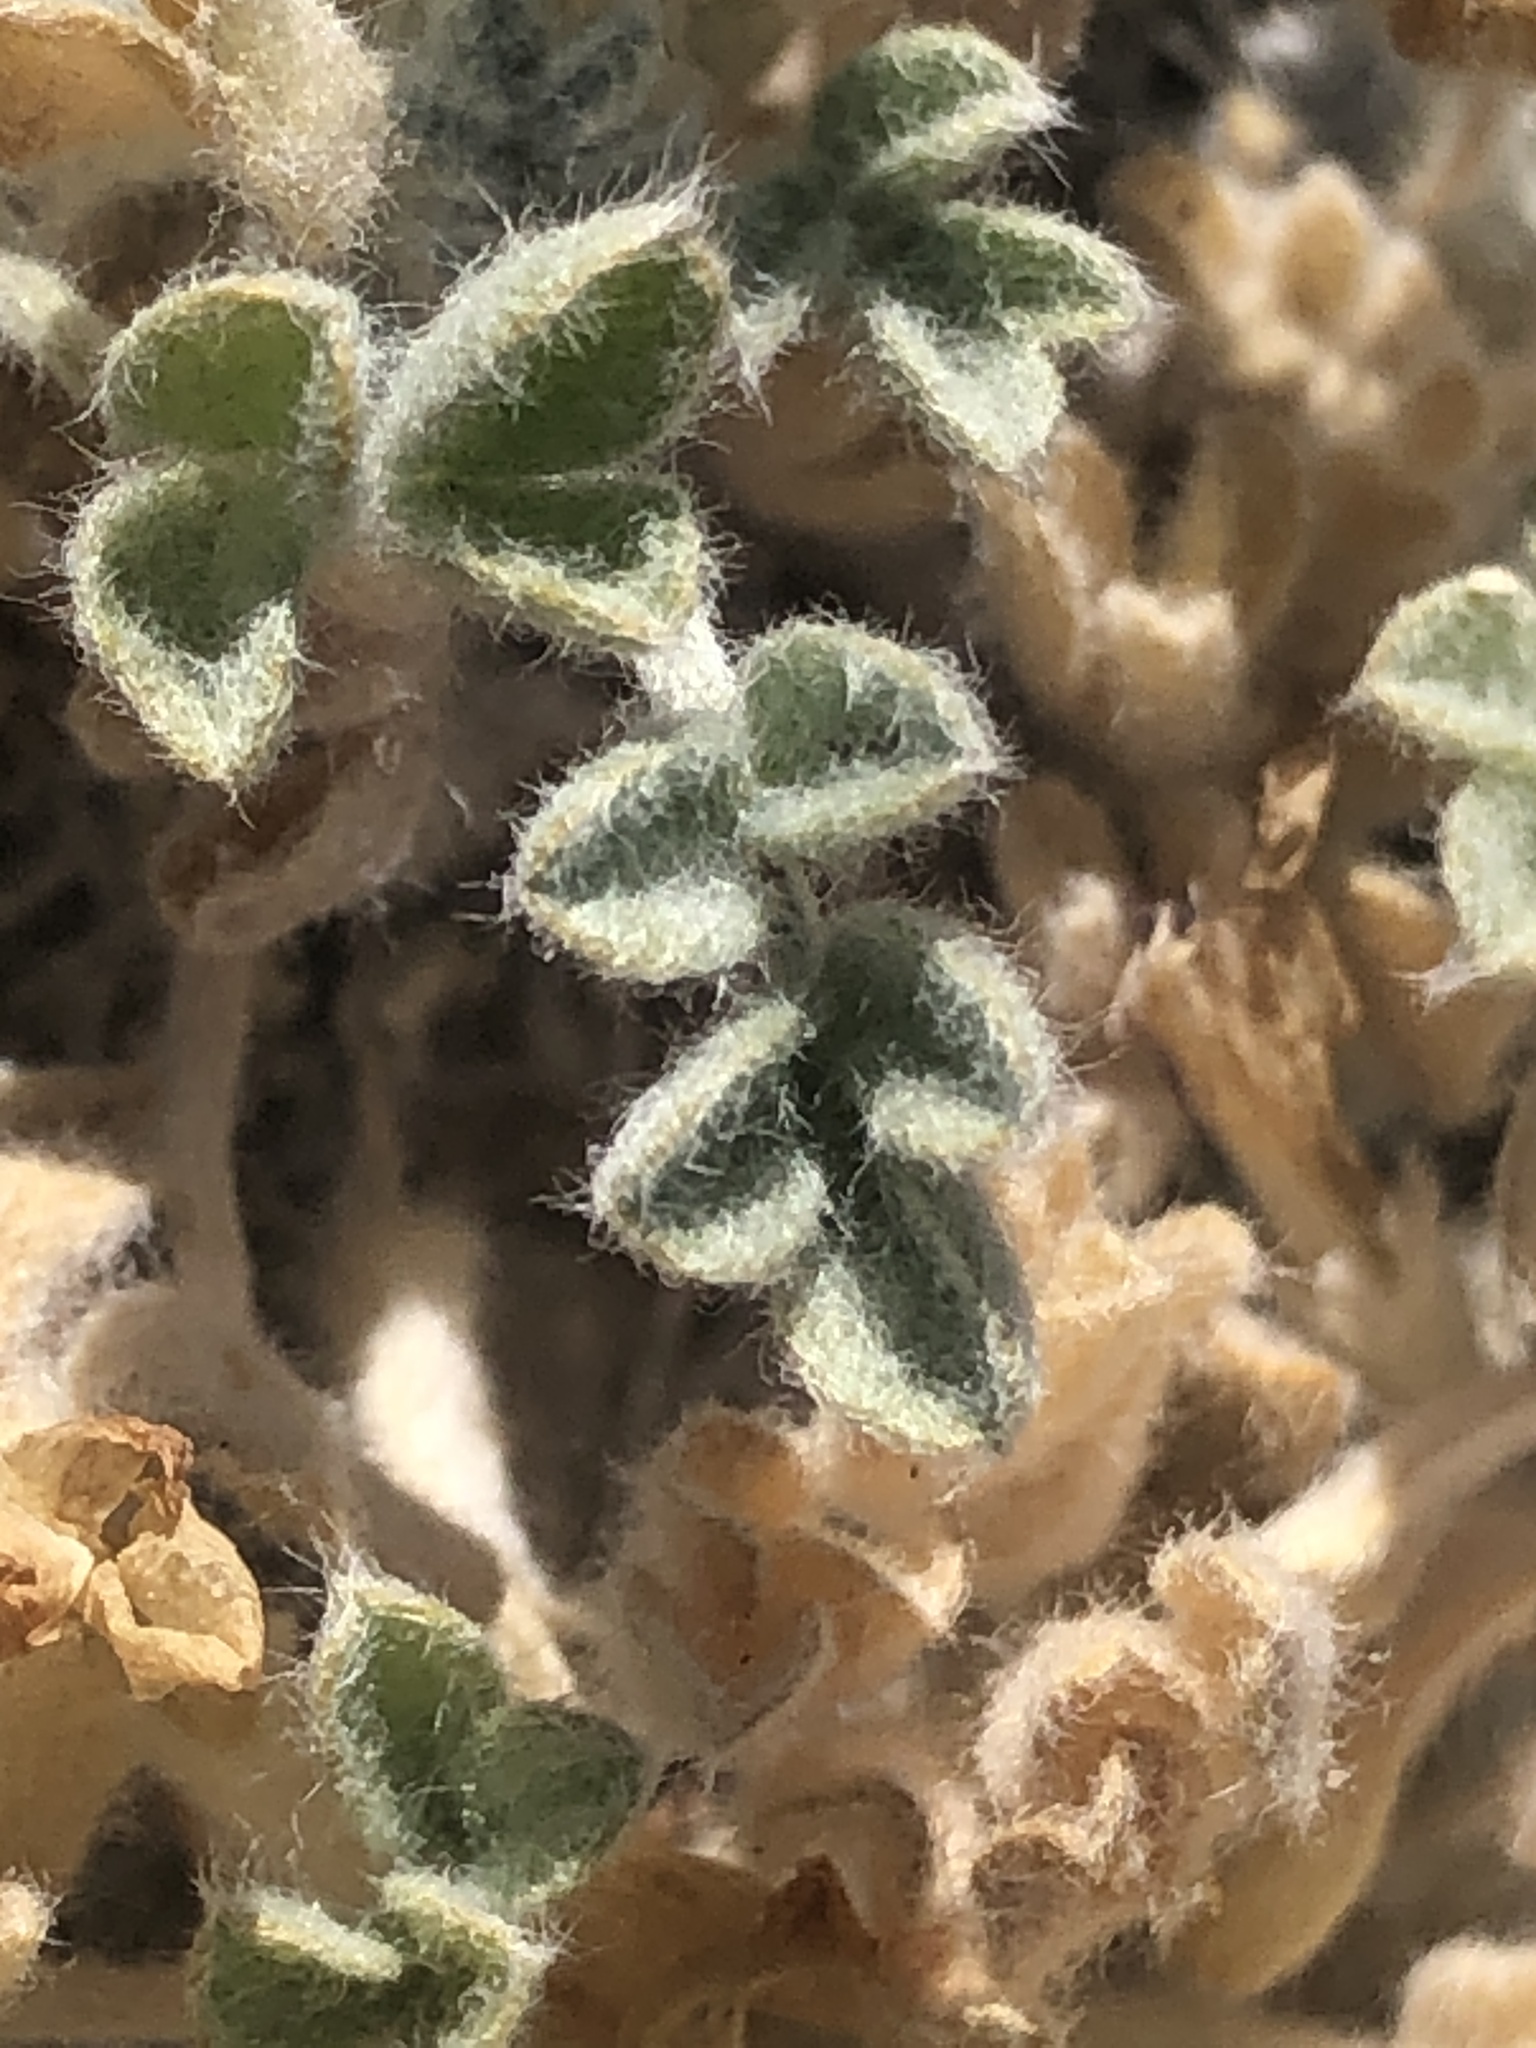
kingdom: Plantae
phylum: Tracheophyta
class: Magnoliopsida
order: Fabales
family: Fabaceae
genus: Astragalus
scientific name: Astragalus purshii
